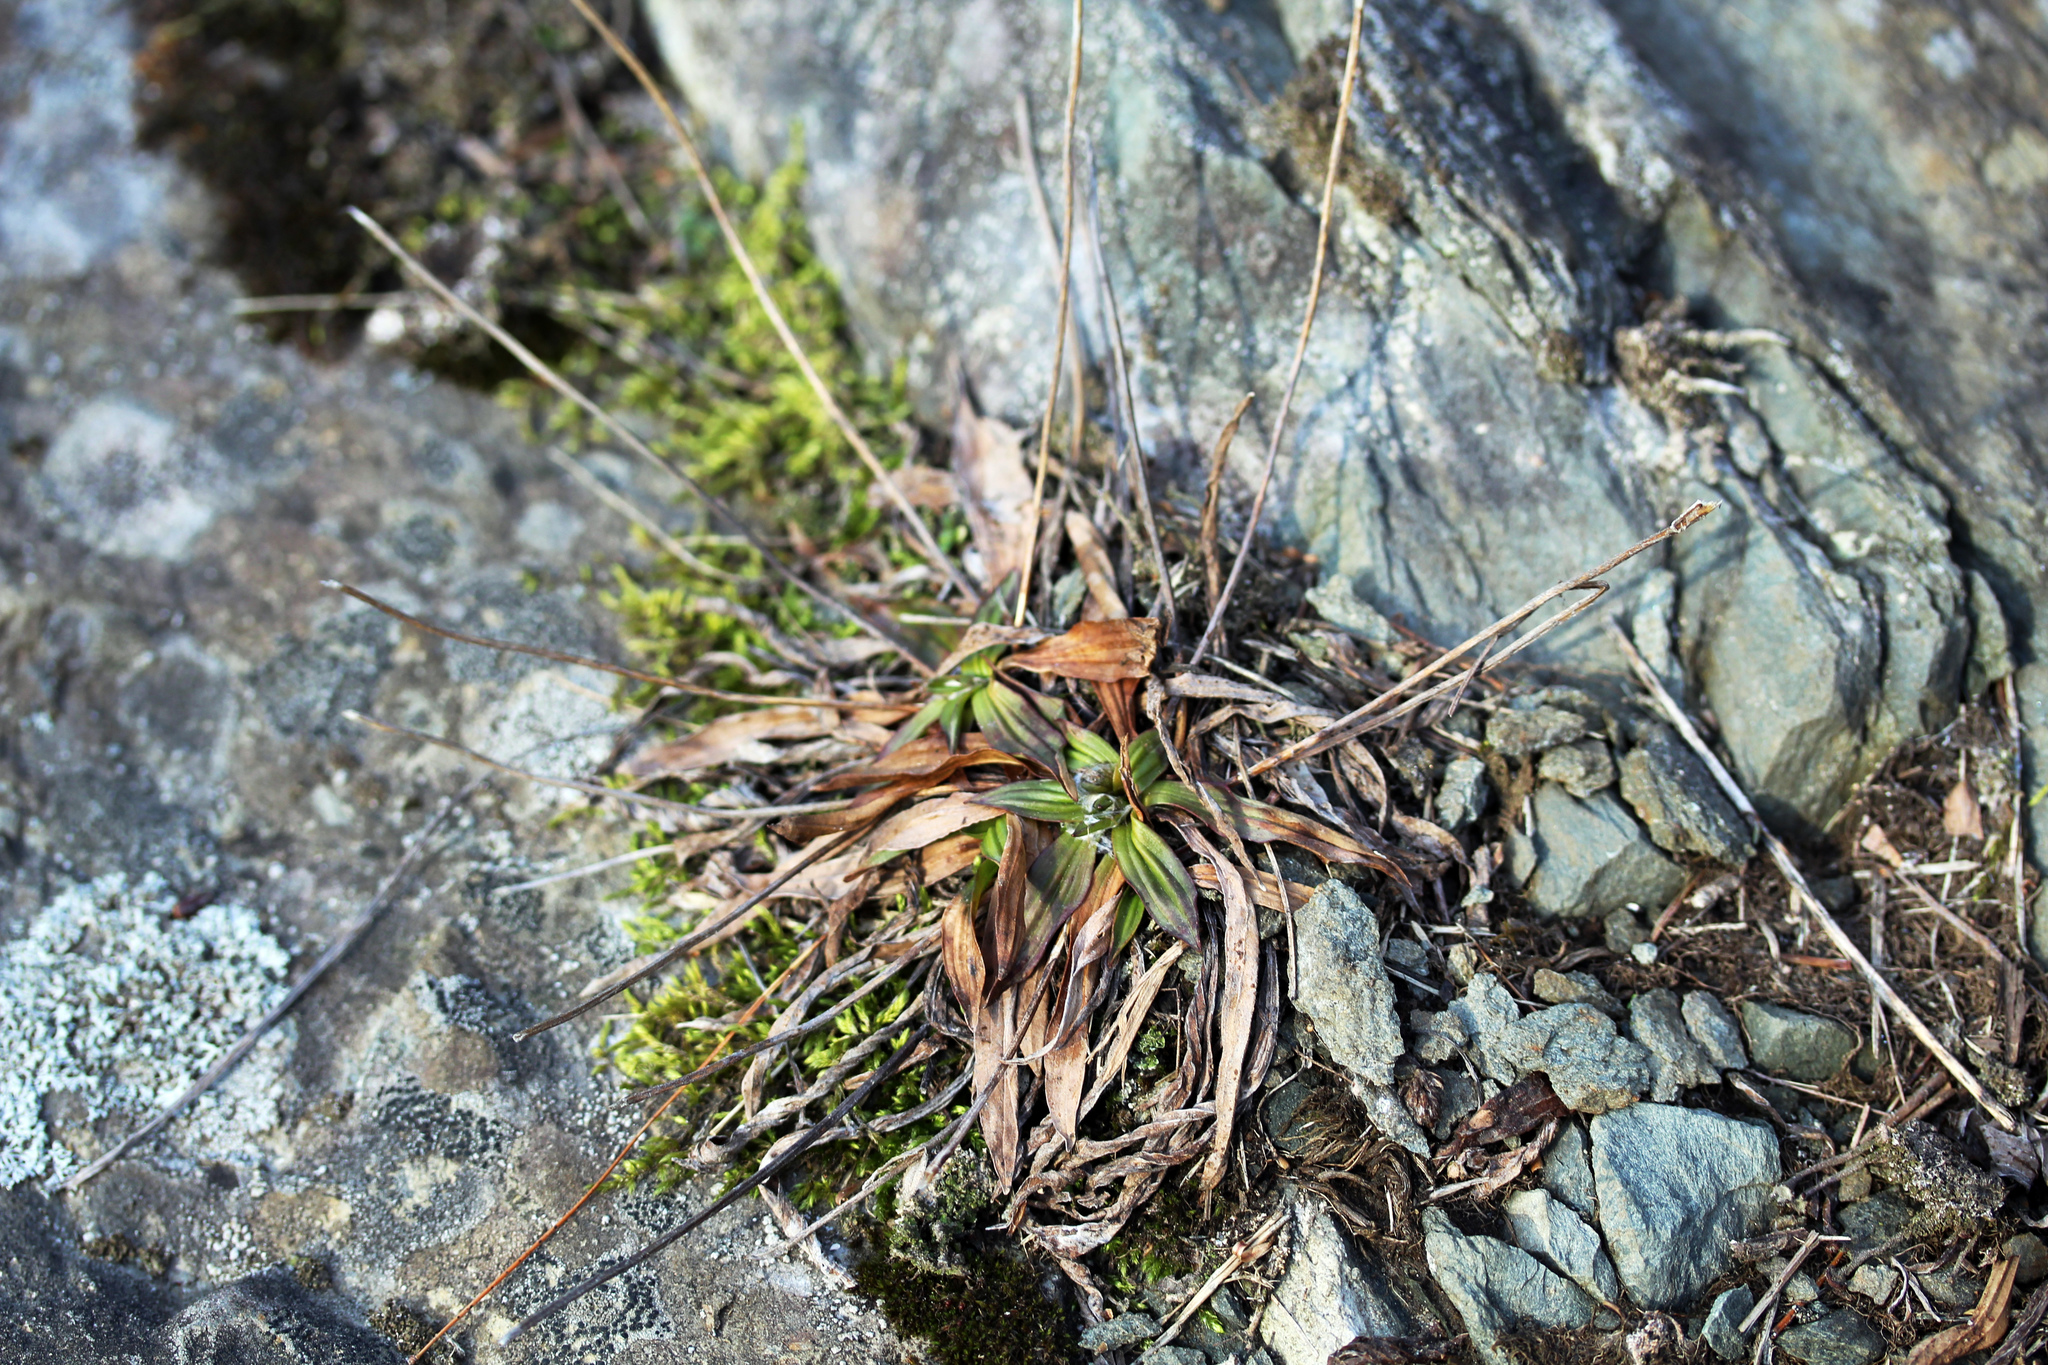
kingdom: Plantae
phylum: Tracheophyta
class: Magnoliopsida
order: Lamiales
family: Plantaginaceae
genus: Plantago
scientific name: Plantago lanceolata
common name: Ribwort plantain
